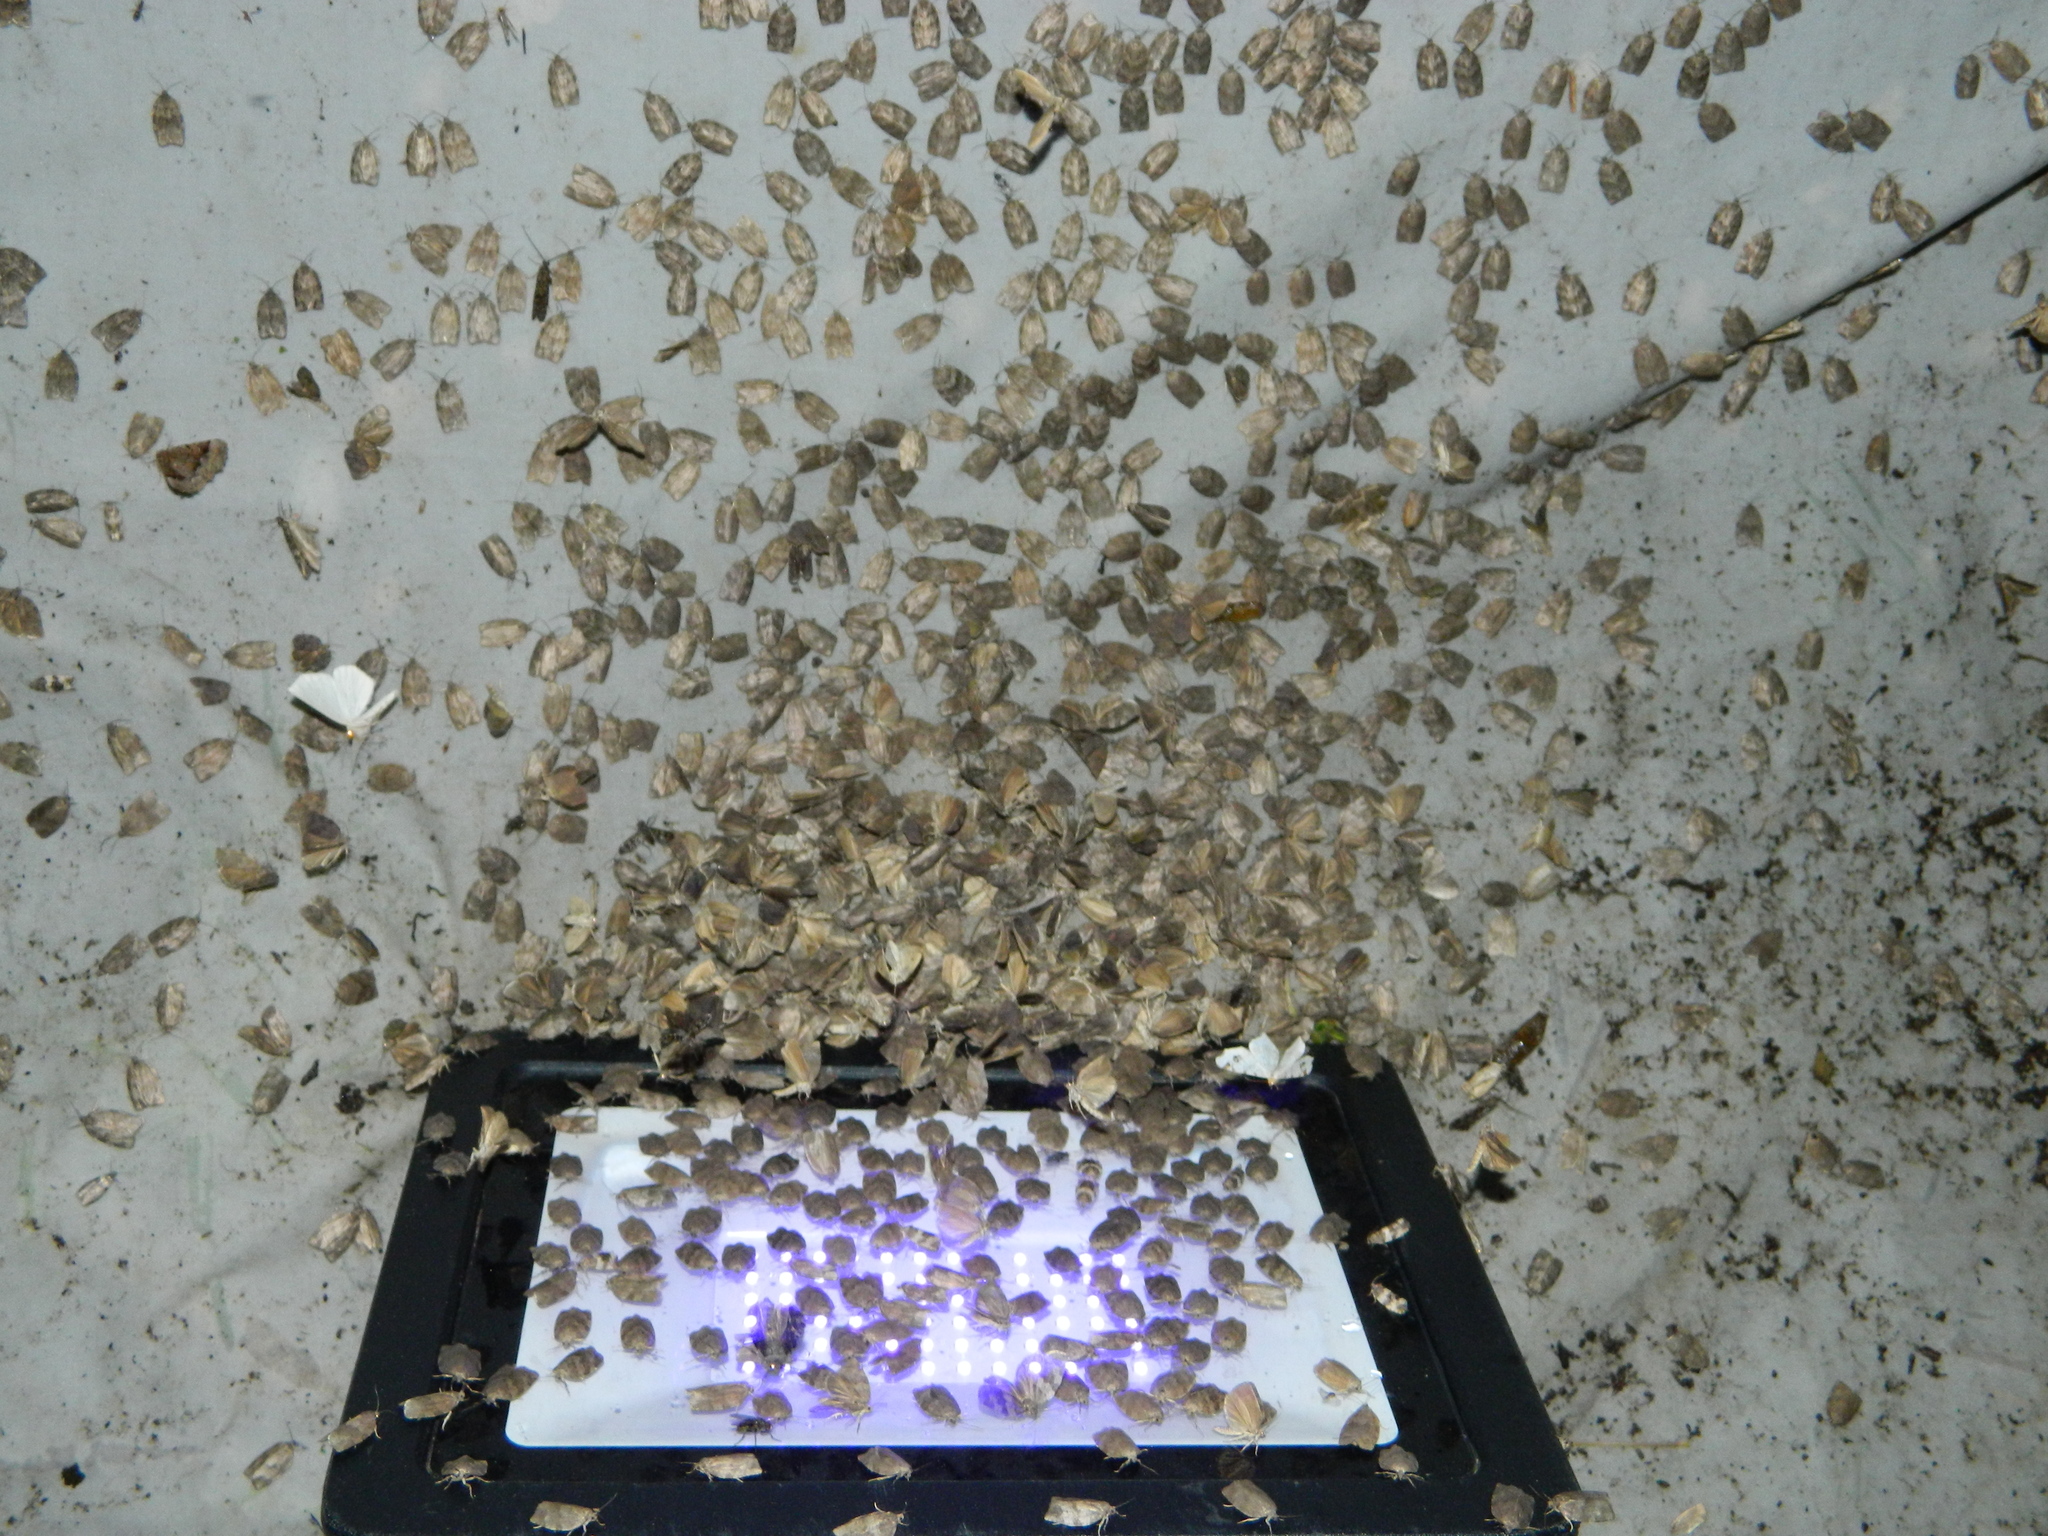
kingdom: Animalia
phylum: Arthropoda
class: Insecta
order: Lepidoptera
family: Tortricidae
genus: Choristoneura
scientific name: Choristoneura conflictana
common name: Large aspen tortrix
